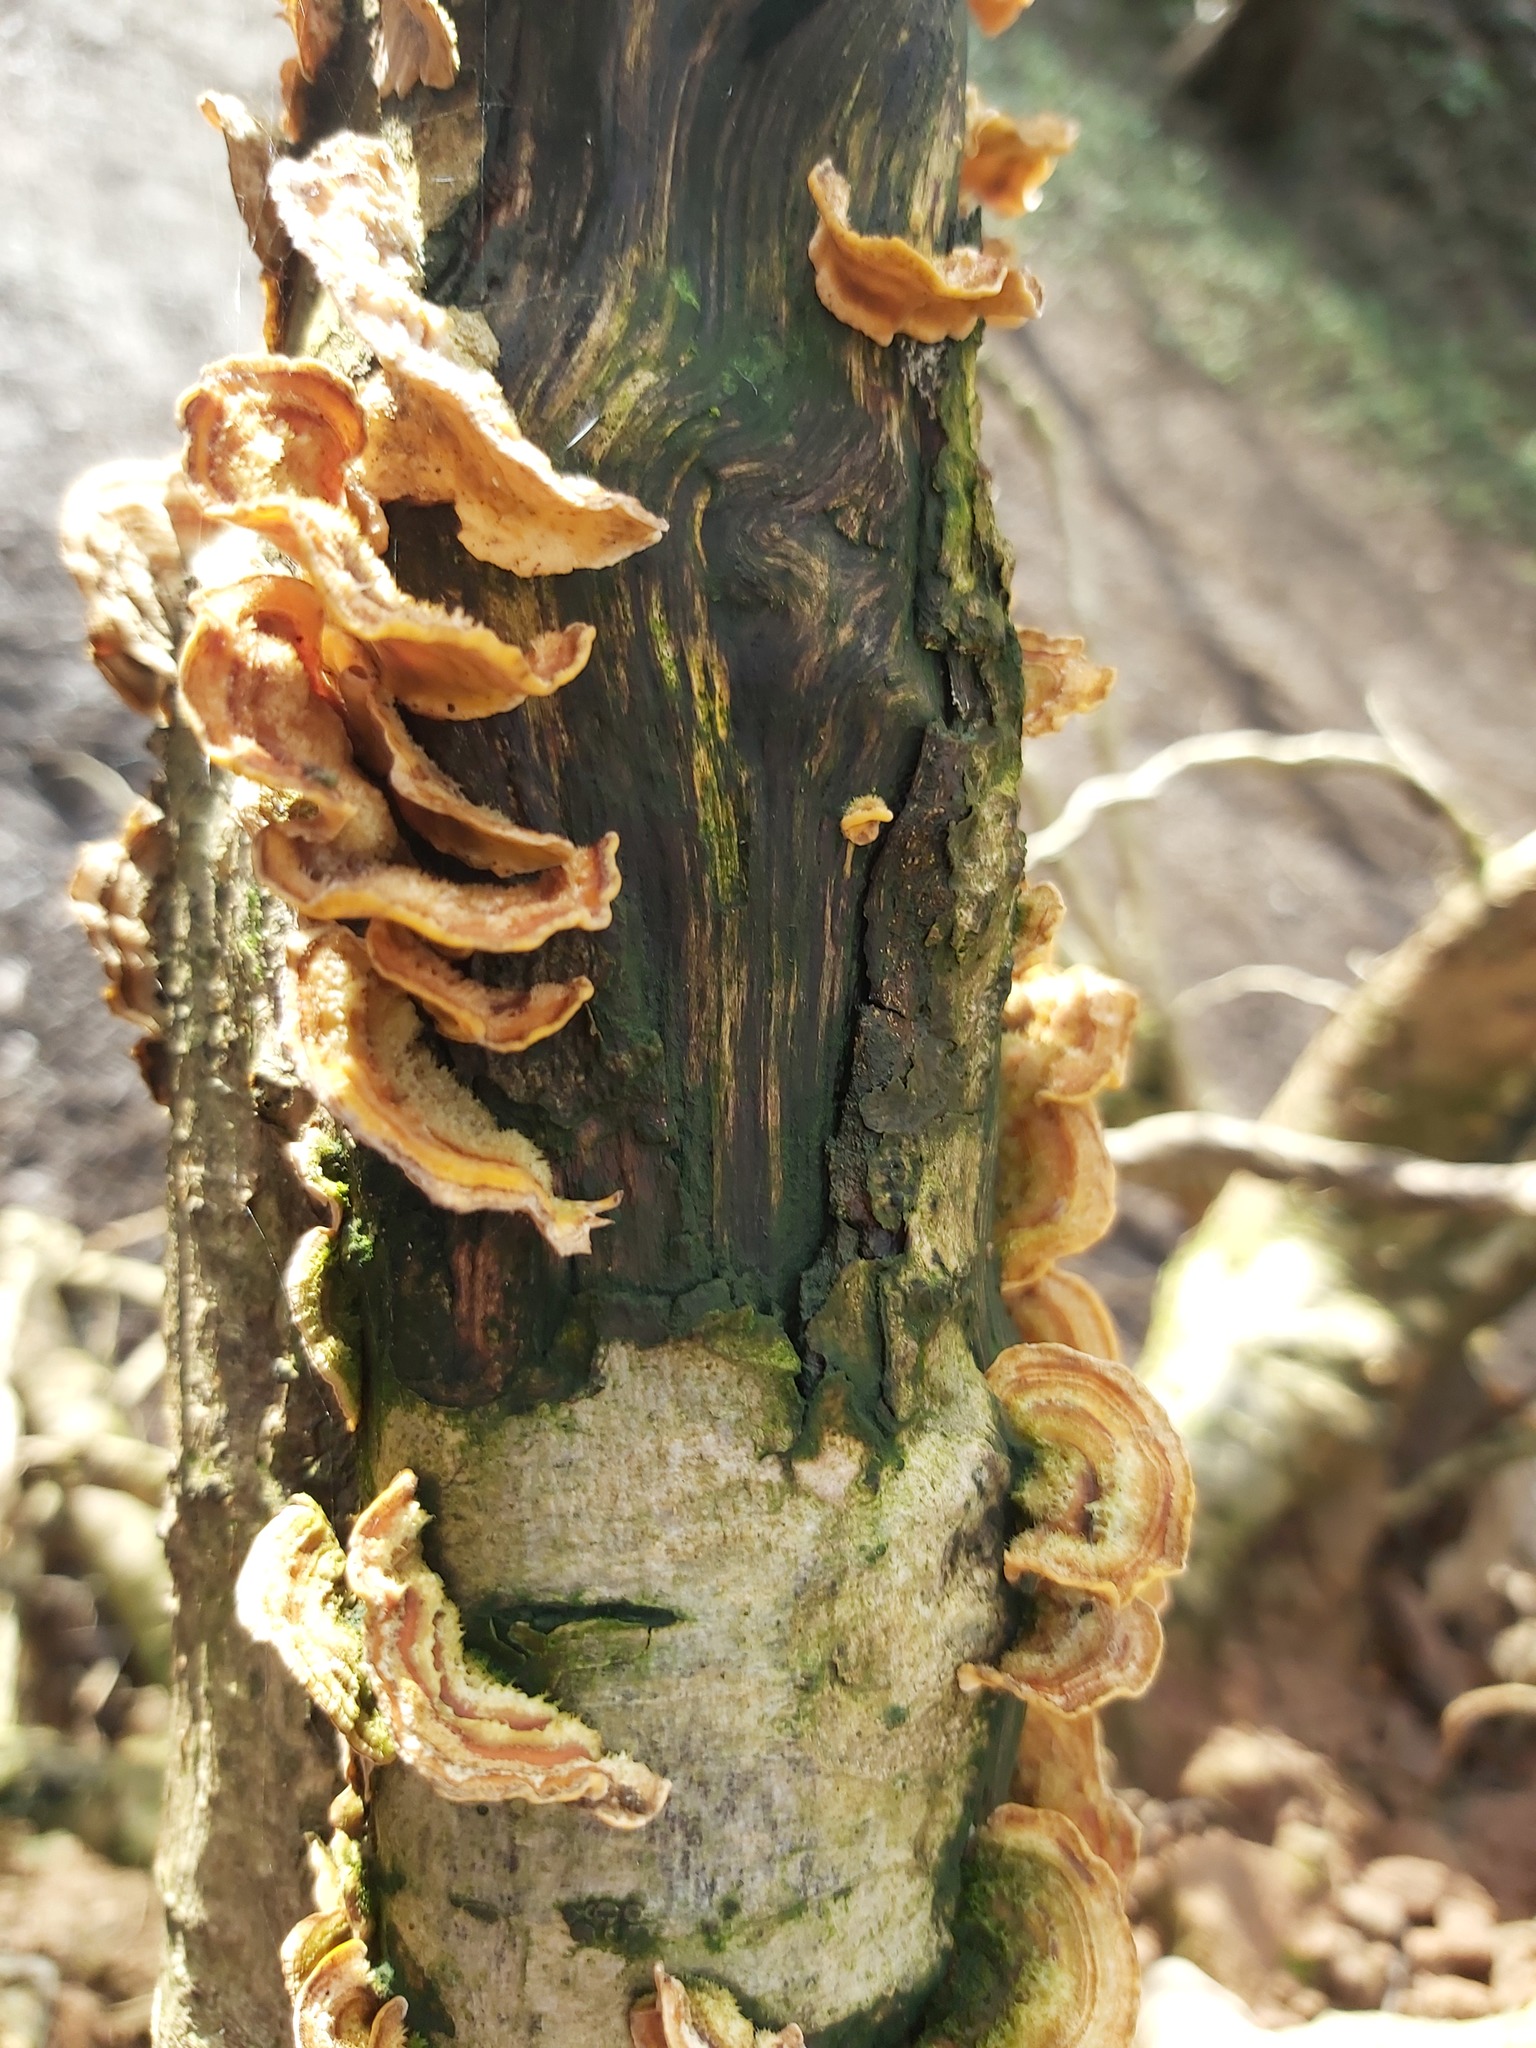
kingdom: Fungi
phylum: Basidiomycota
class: Agaricomycetes
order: Russulales
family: Stereaceae
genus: Stereum
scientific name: Stereum hirsutum
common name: Hairy curtain crust
